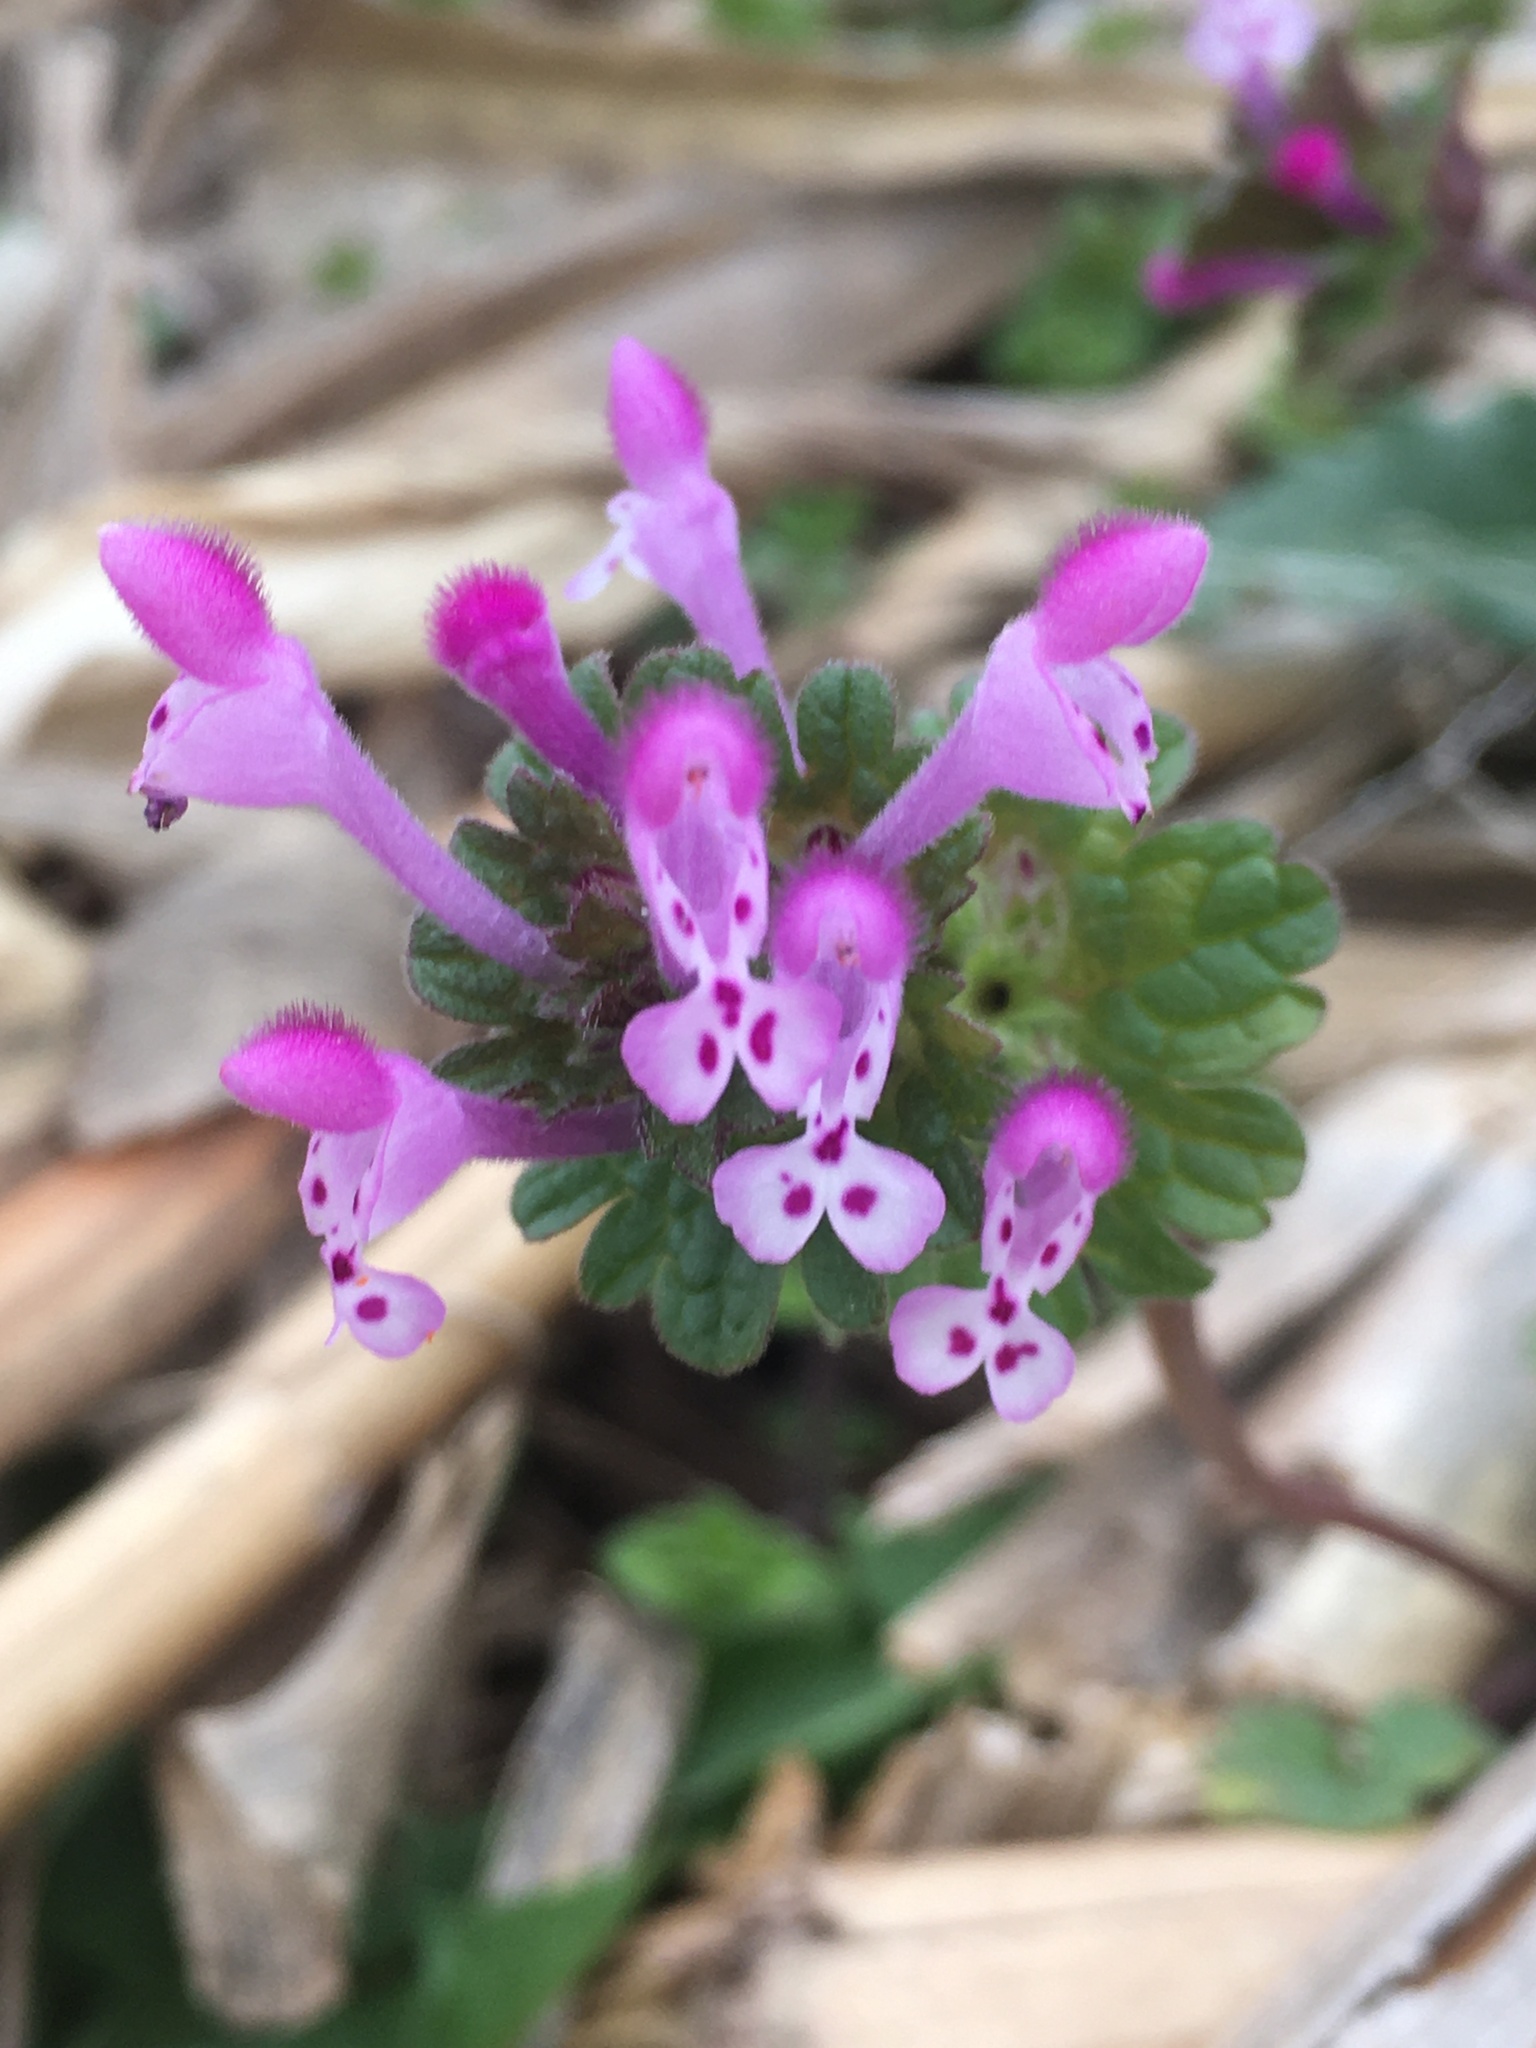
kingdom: Plantae
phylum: Tracheophyta
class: Magnoliopsida
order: Lamiales
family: Lamiaceae
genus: Lamium
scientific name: Lamium amplexicaule
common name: Henbit dead-nettle
